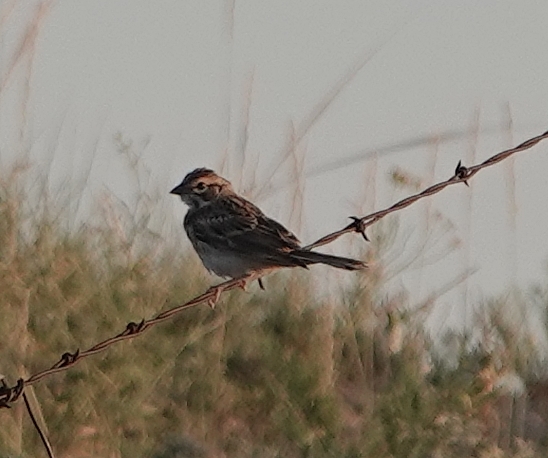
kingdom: Animalia
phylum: Chordata
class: Aves
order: Passeriformes
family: Passerellidae
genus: Chondestes
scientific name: Chondestes grammacus
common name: Lark sparrow
